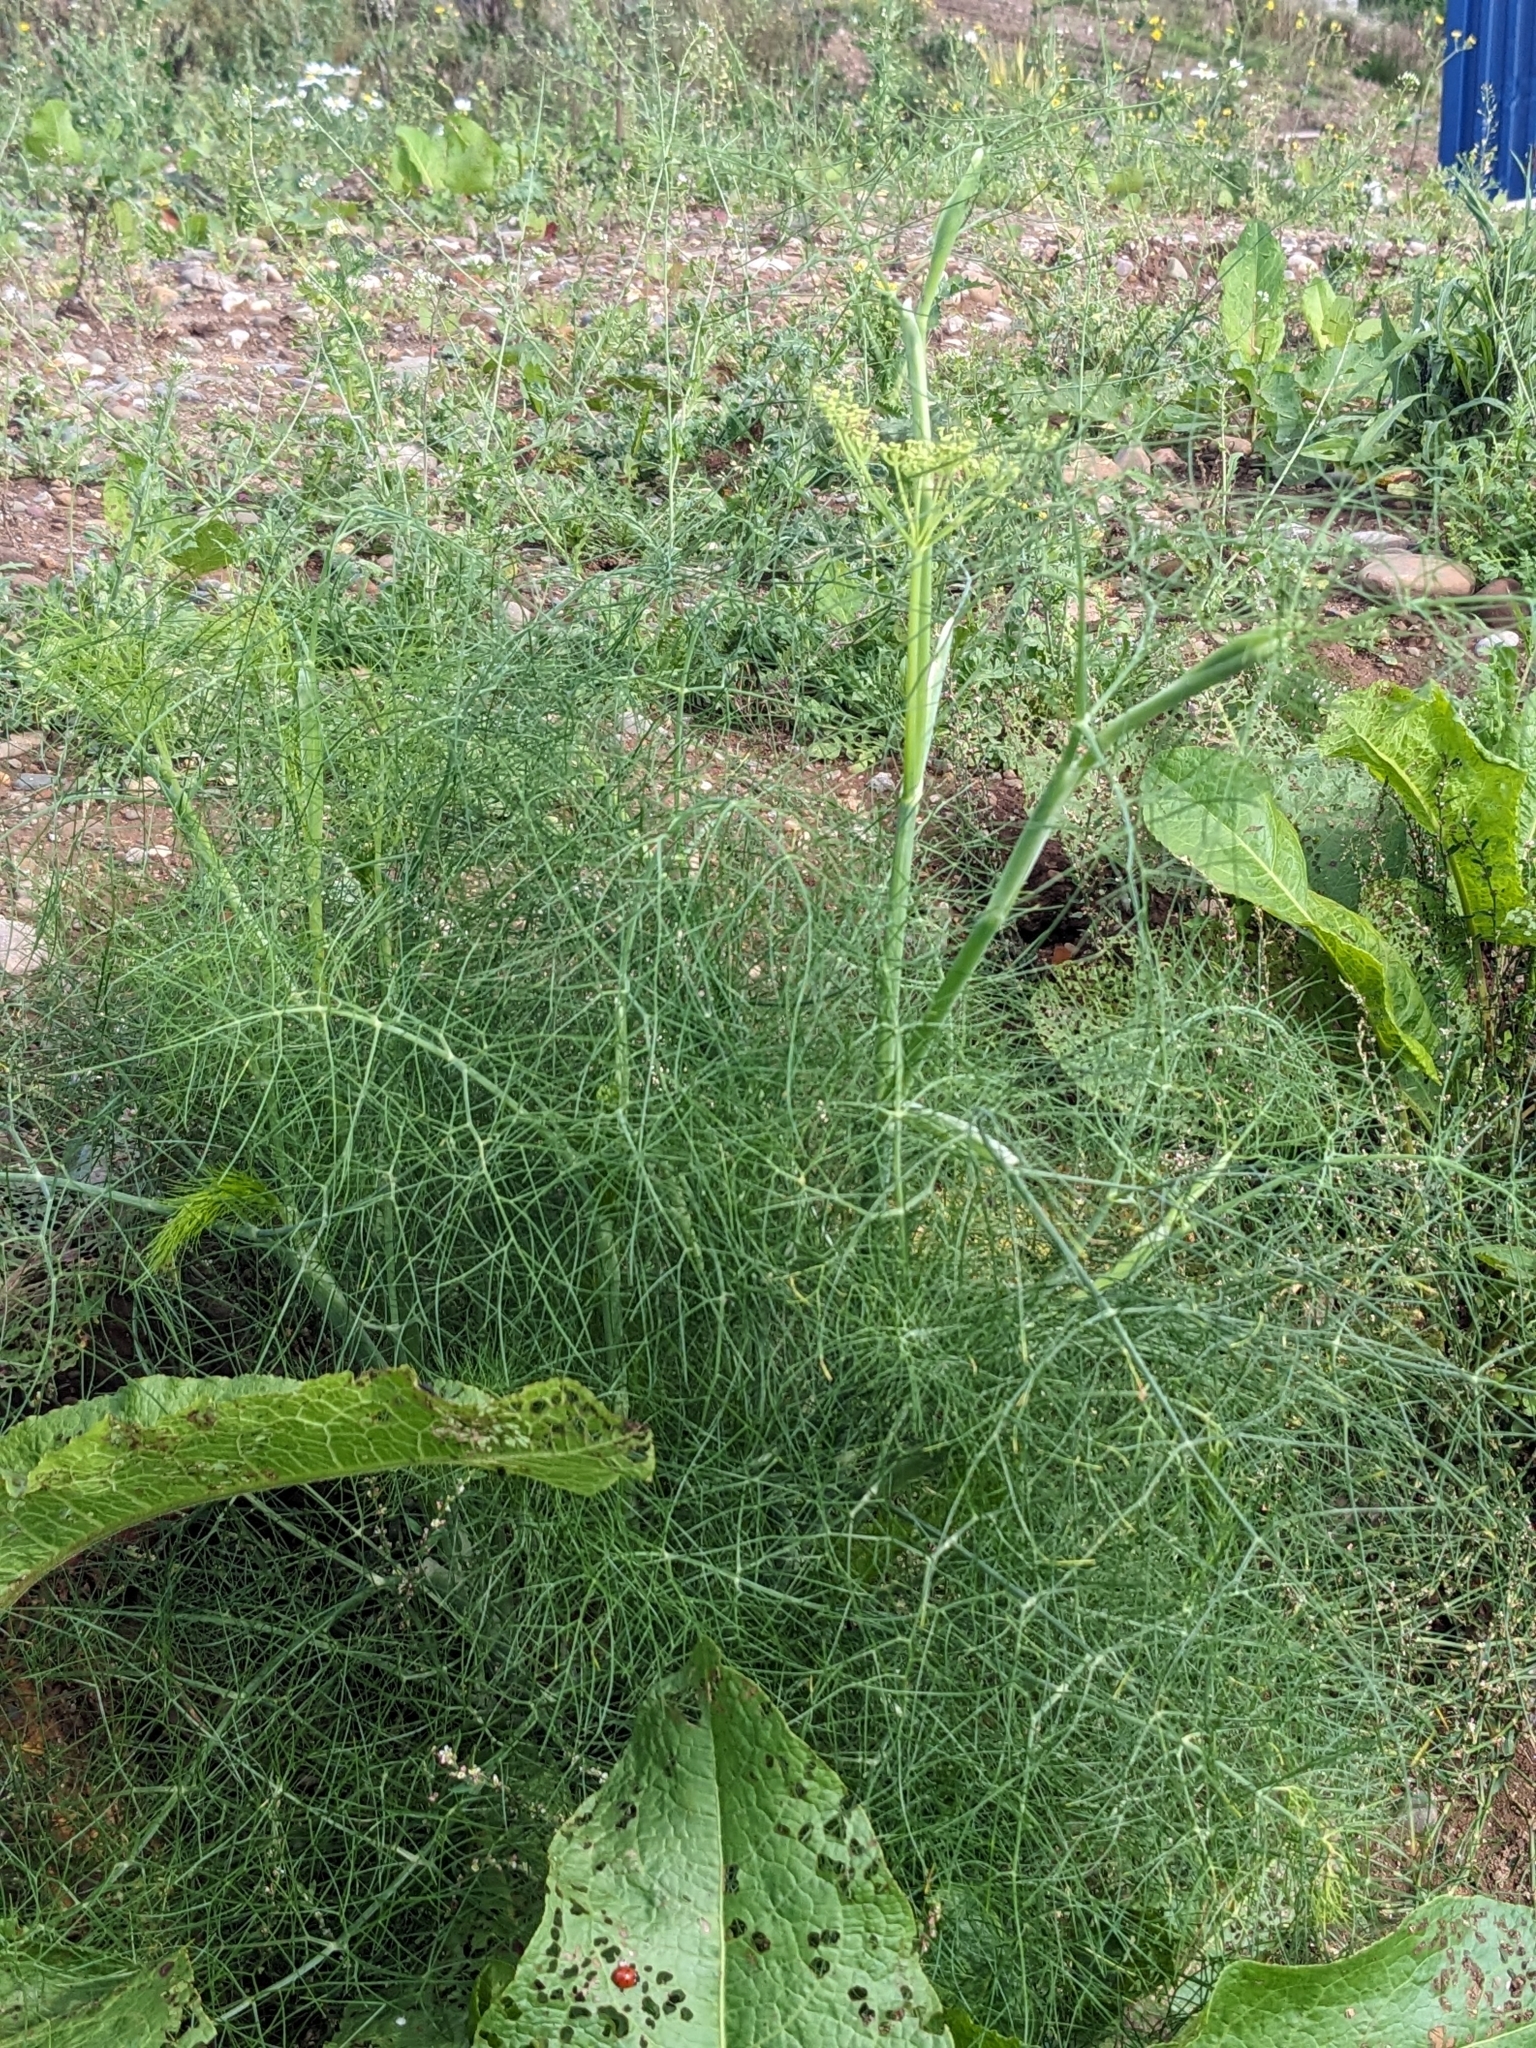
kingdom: Plantae
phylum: Tracheophyta
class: Magnoliopsida
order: Apiales
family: Apiaceae
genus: Foeniculum
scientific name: Foeniculum vulgare
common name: Fennel
